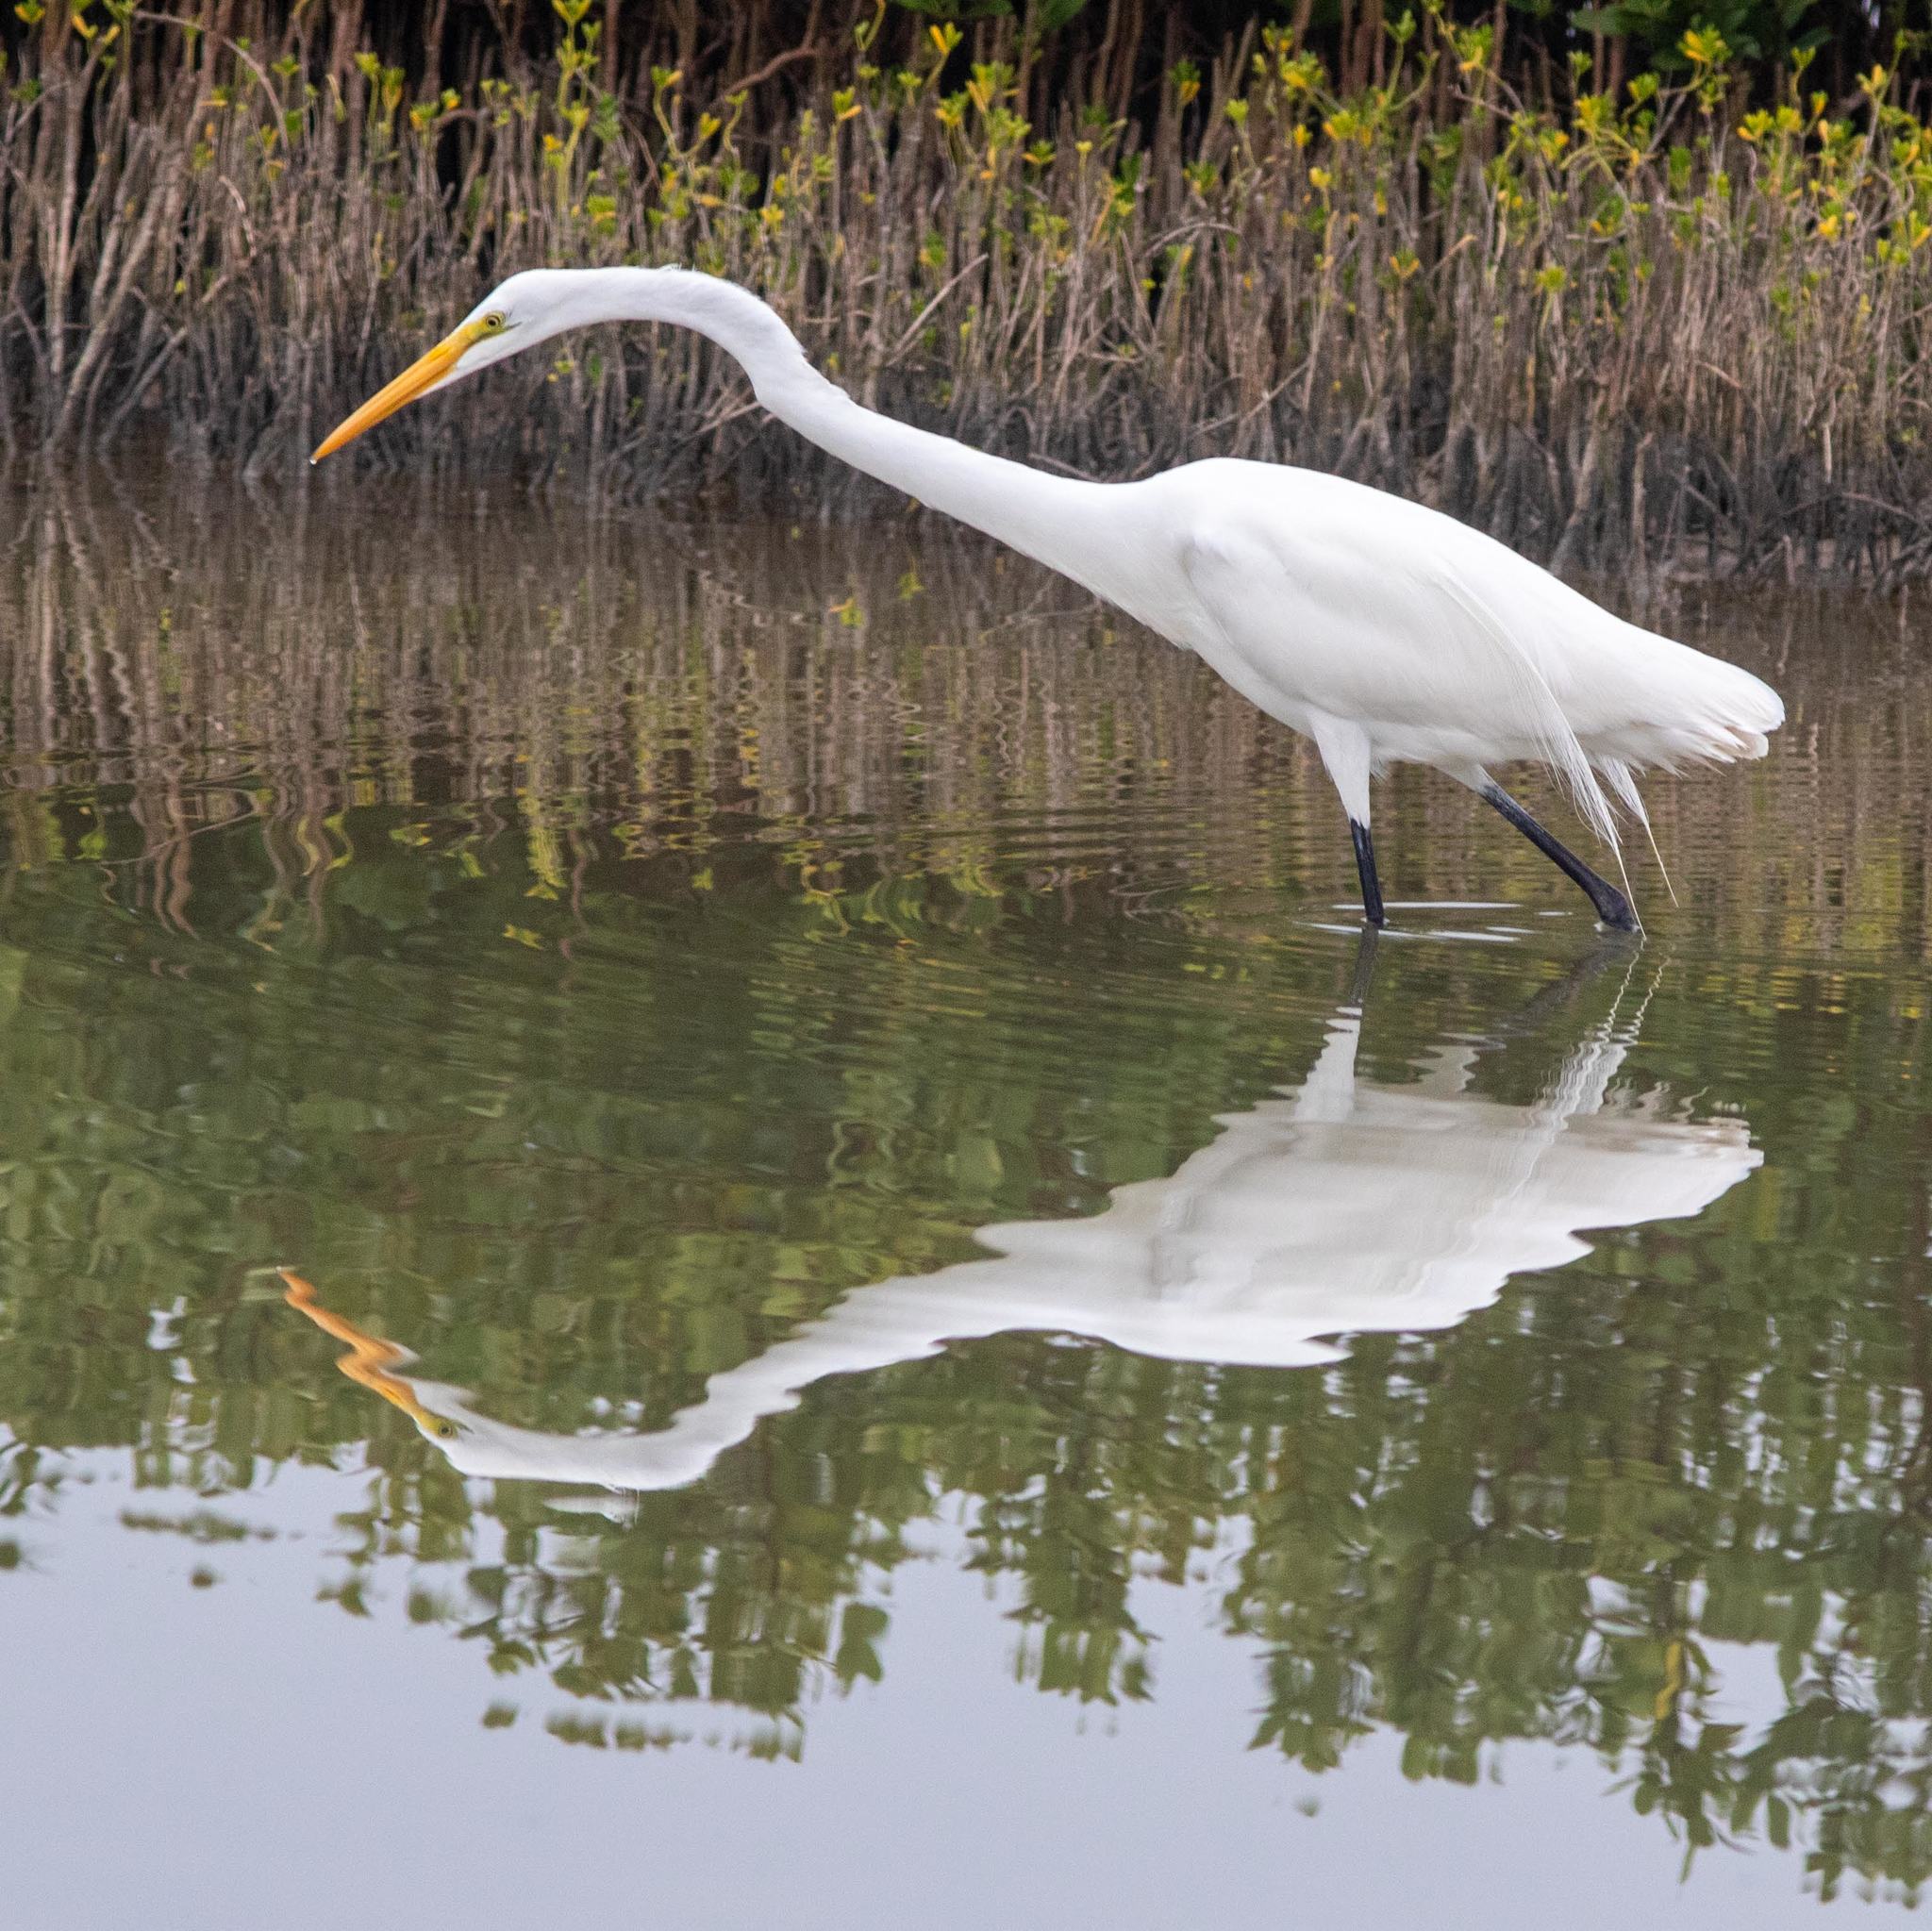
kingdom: Animalia
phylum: Chordata
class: Aves
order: Pelecaniformes
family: Ardeidae
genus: Ardea
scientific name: Ardea alba
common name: Great egret
